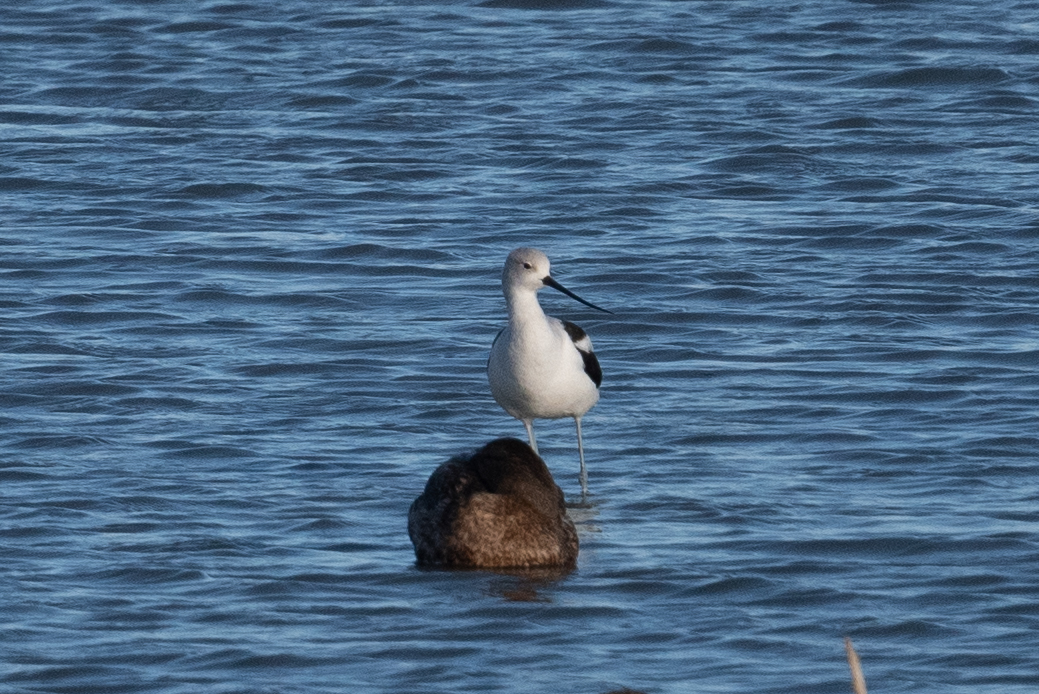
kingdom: Animalia
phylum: Chordata
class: Aves
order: Charadriiformes
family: Recurvirostridae
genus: Recurvirostra
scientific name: Recurvirostra americana
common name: American avocet
